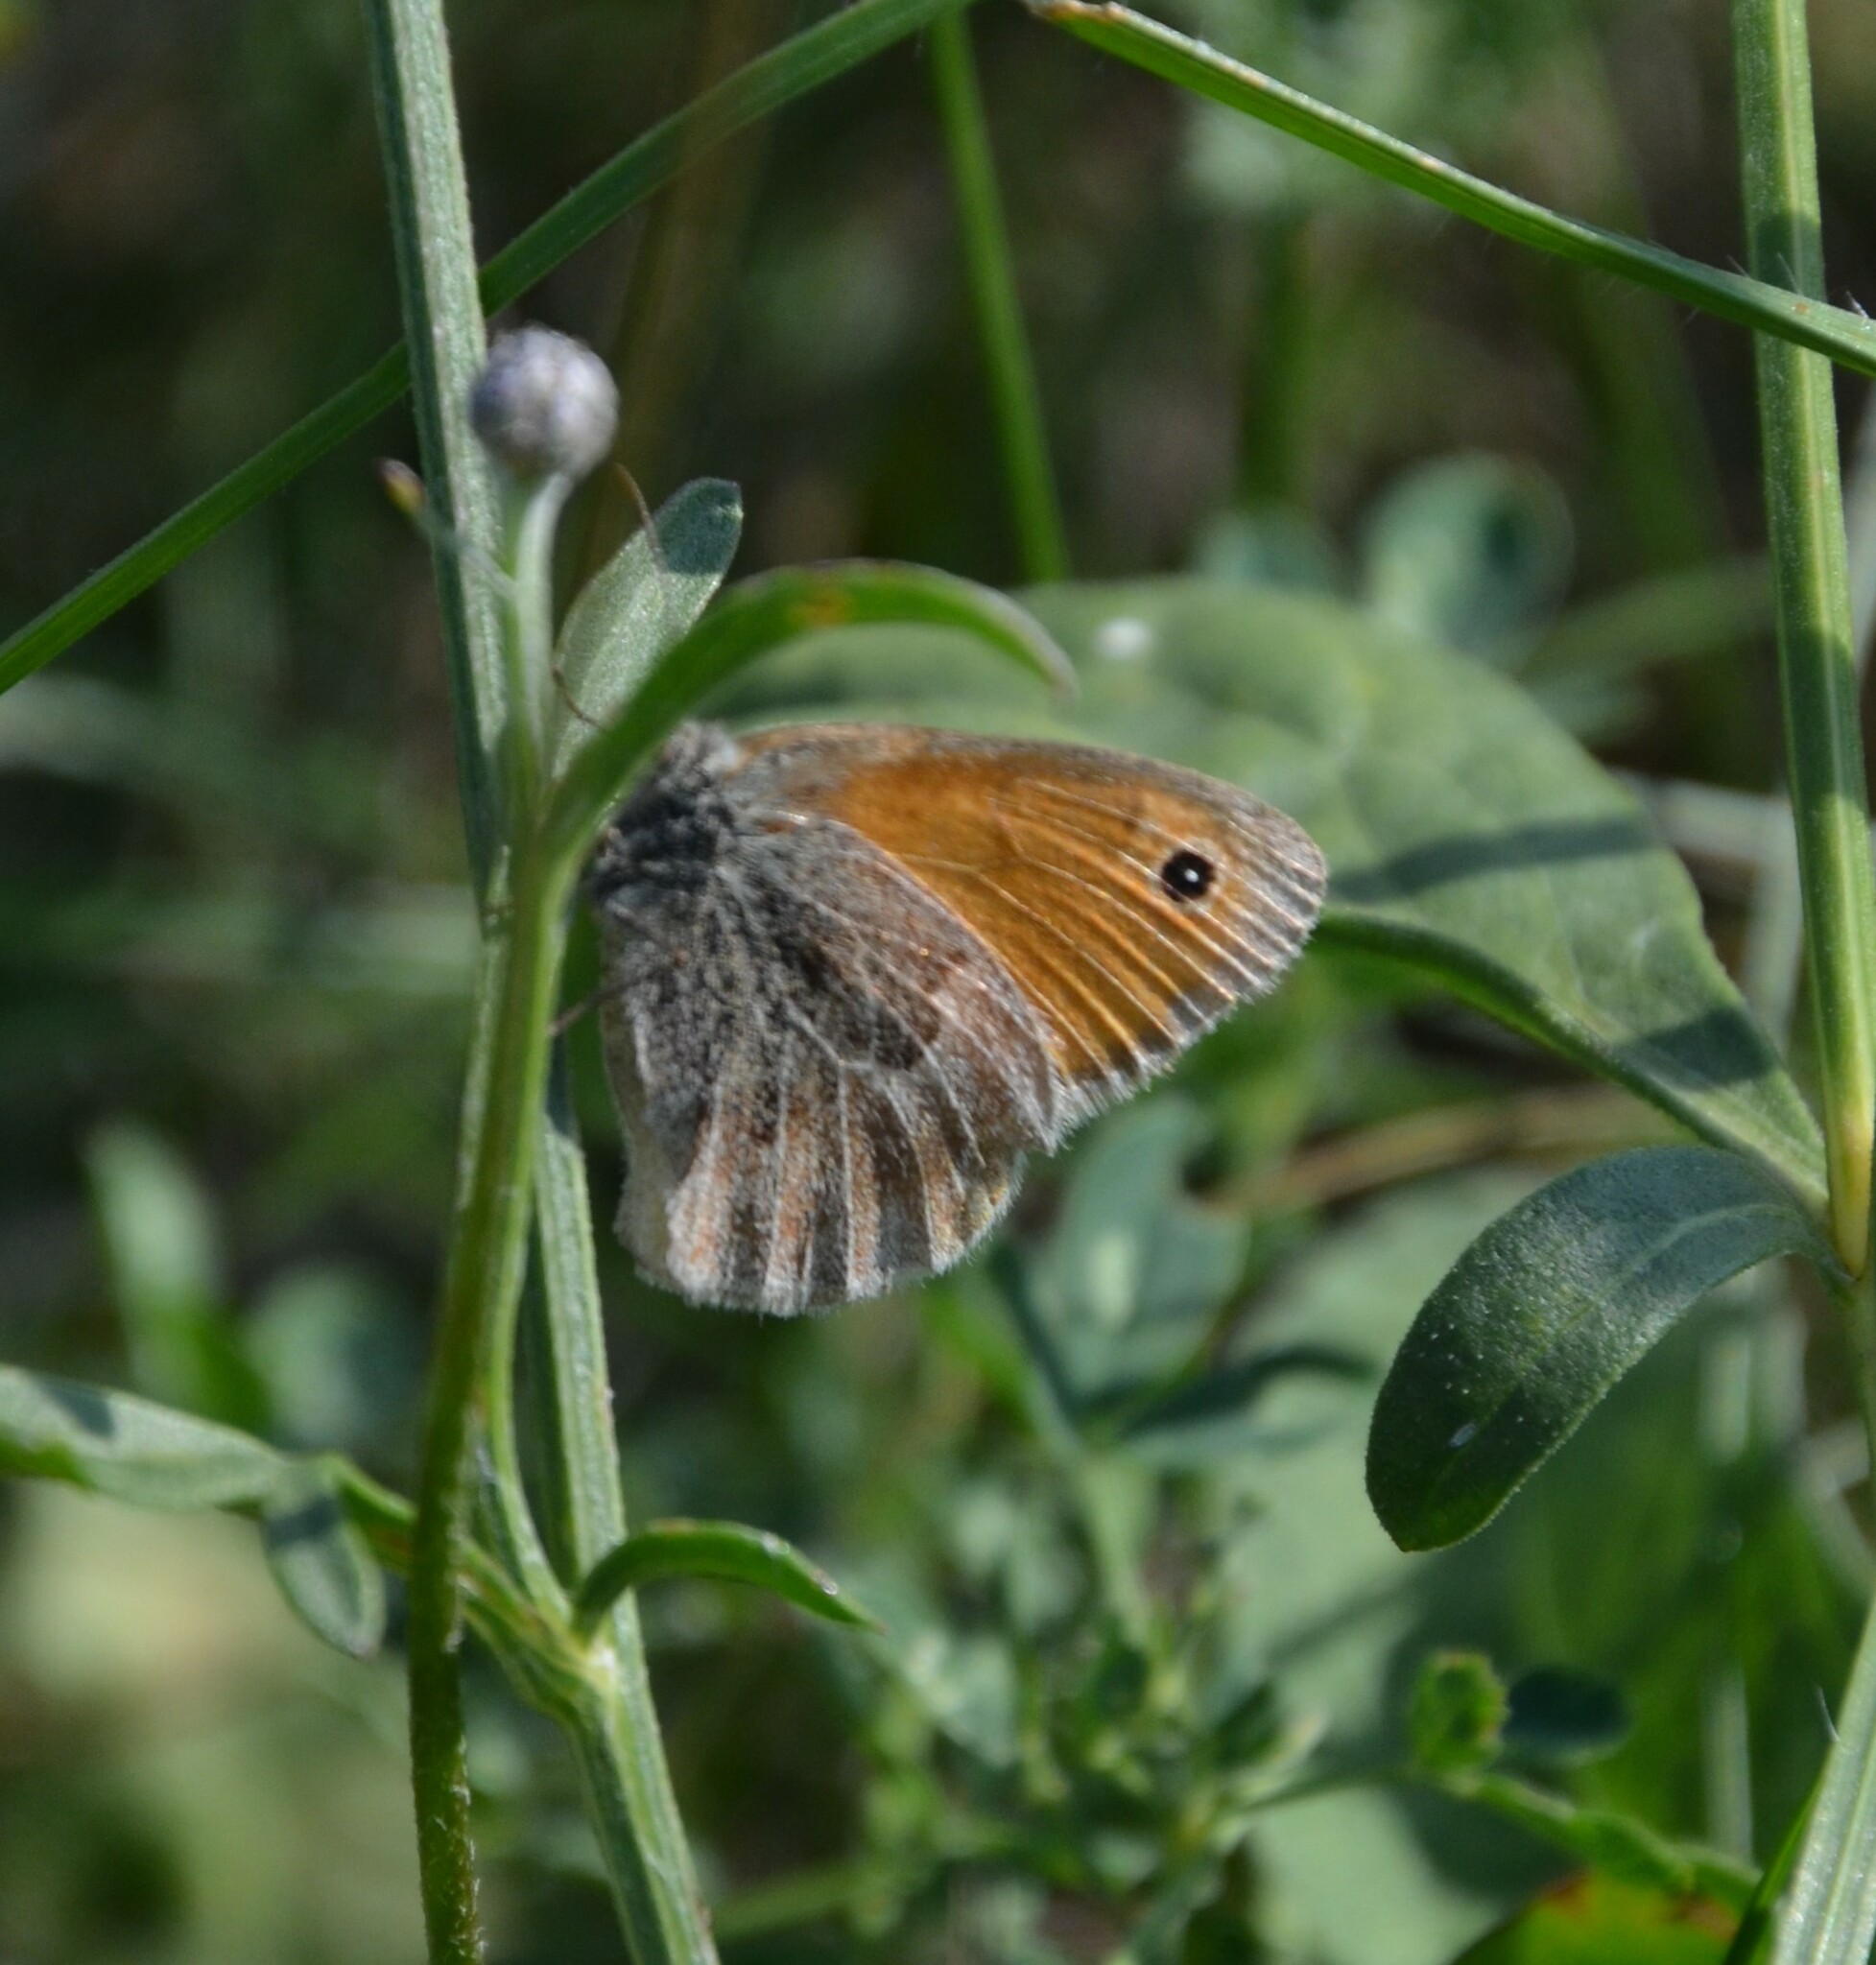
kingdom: Animalia
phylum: Arthropoda
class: Insecta
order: Lepidoptera
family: Nymphalidae
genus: Coenonympha
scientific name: Coenonympha pamphilus
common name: Small heath
